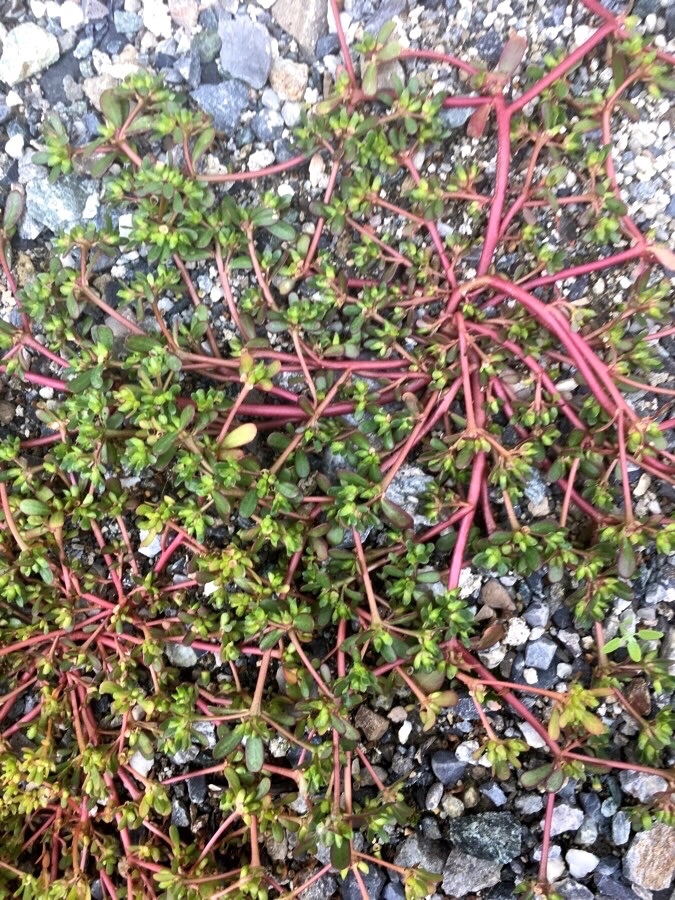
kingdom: Plantae
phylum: Tracheophyta
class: Magnoliopsida
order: Caryophyllales
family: Portulacaceae
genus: Portulaca
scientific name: Portulaca oleracea
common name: Common purslane
